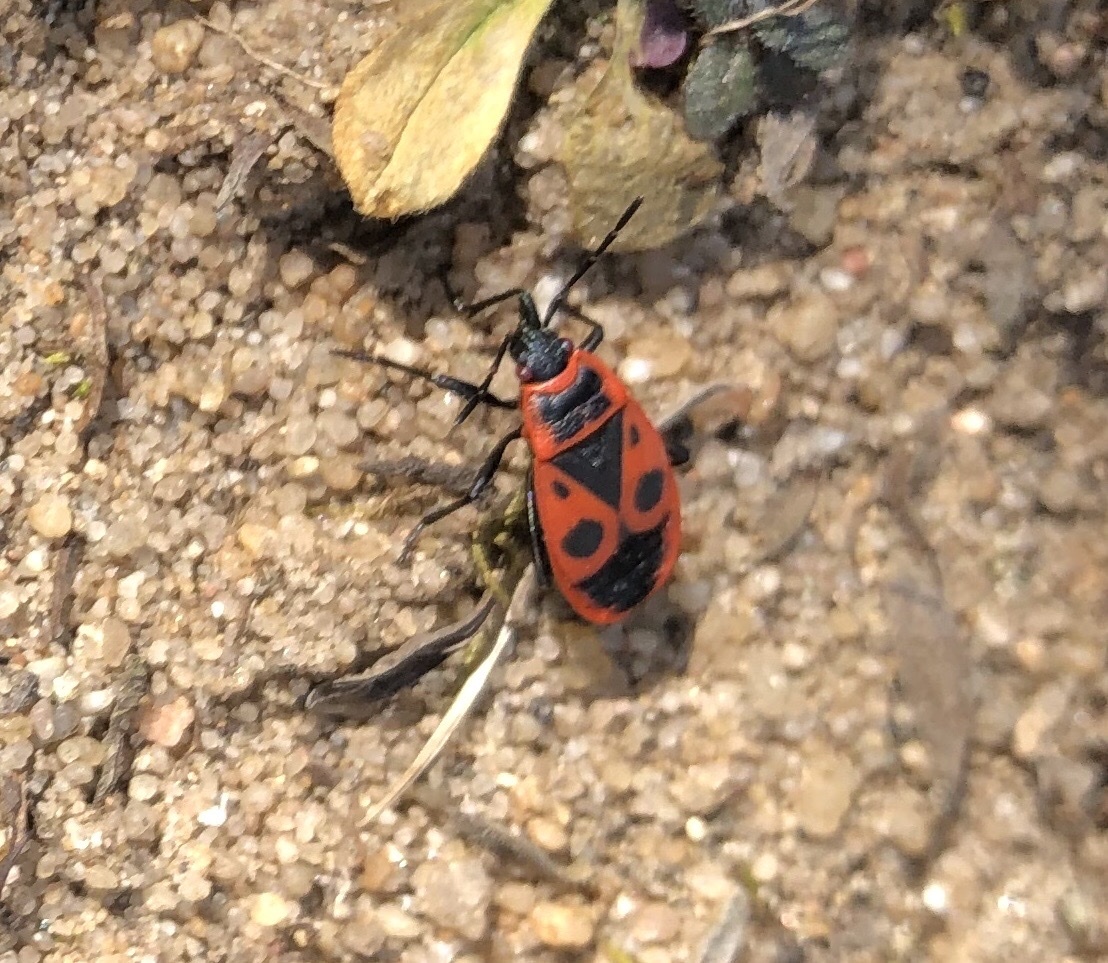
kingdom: Animalia
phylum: Arthropoda
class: Insecta
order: Hemiptera
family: Pyrrhocoridae
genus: Pyrrhocoris
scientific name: Pyrrhocoris apterus
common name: Firebug
